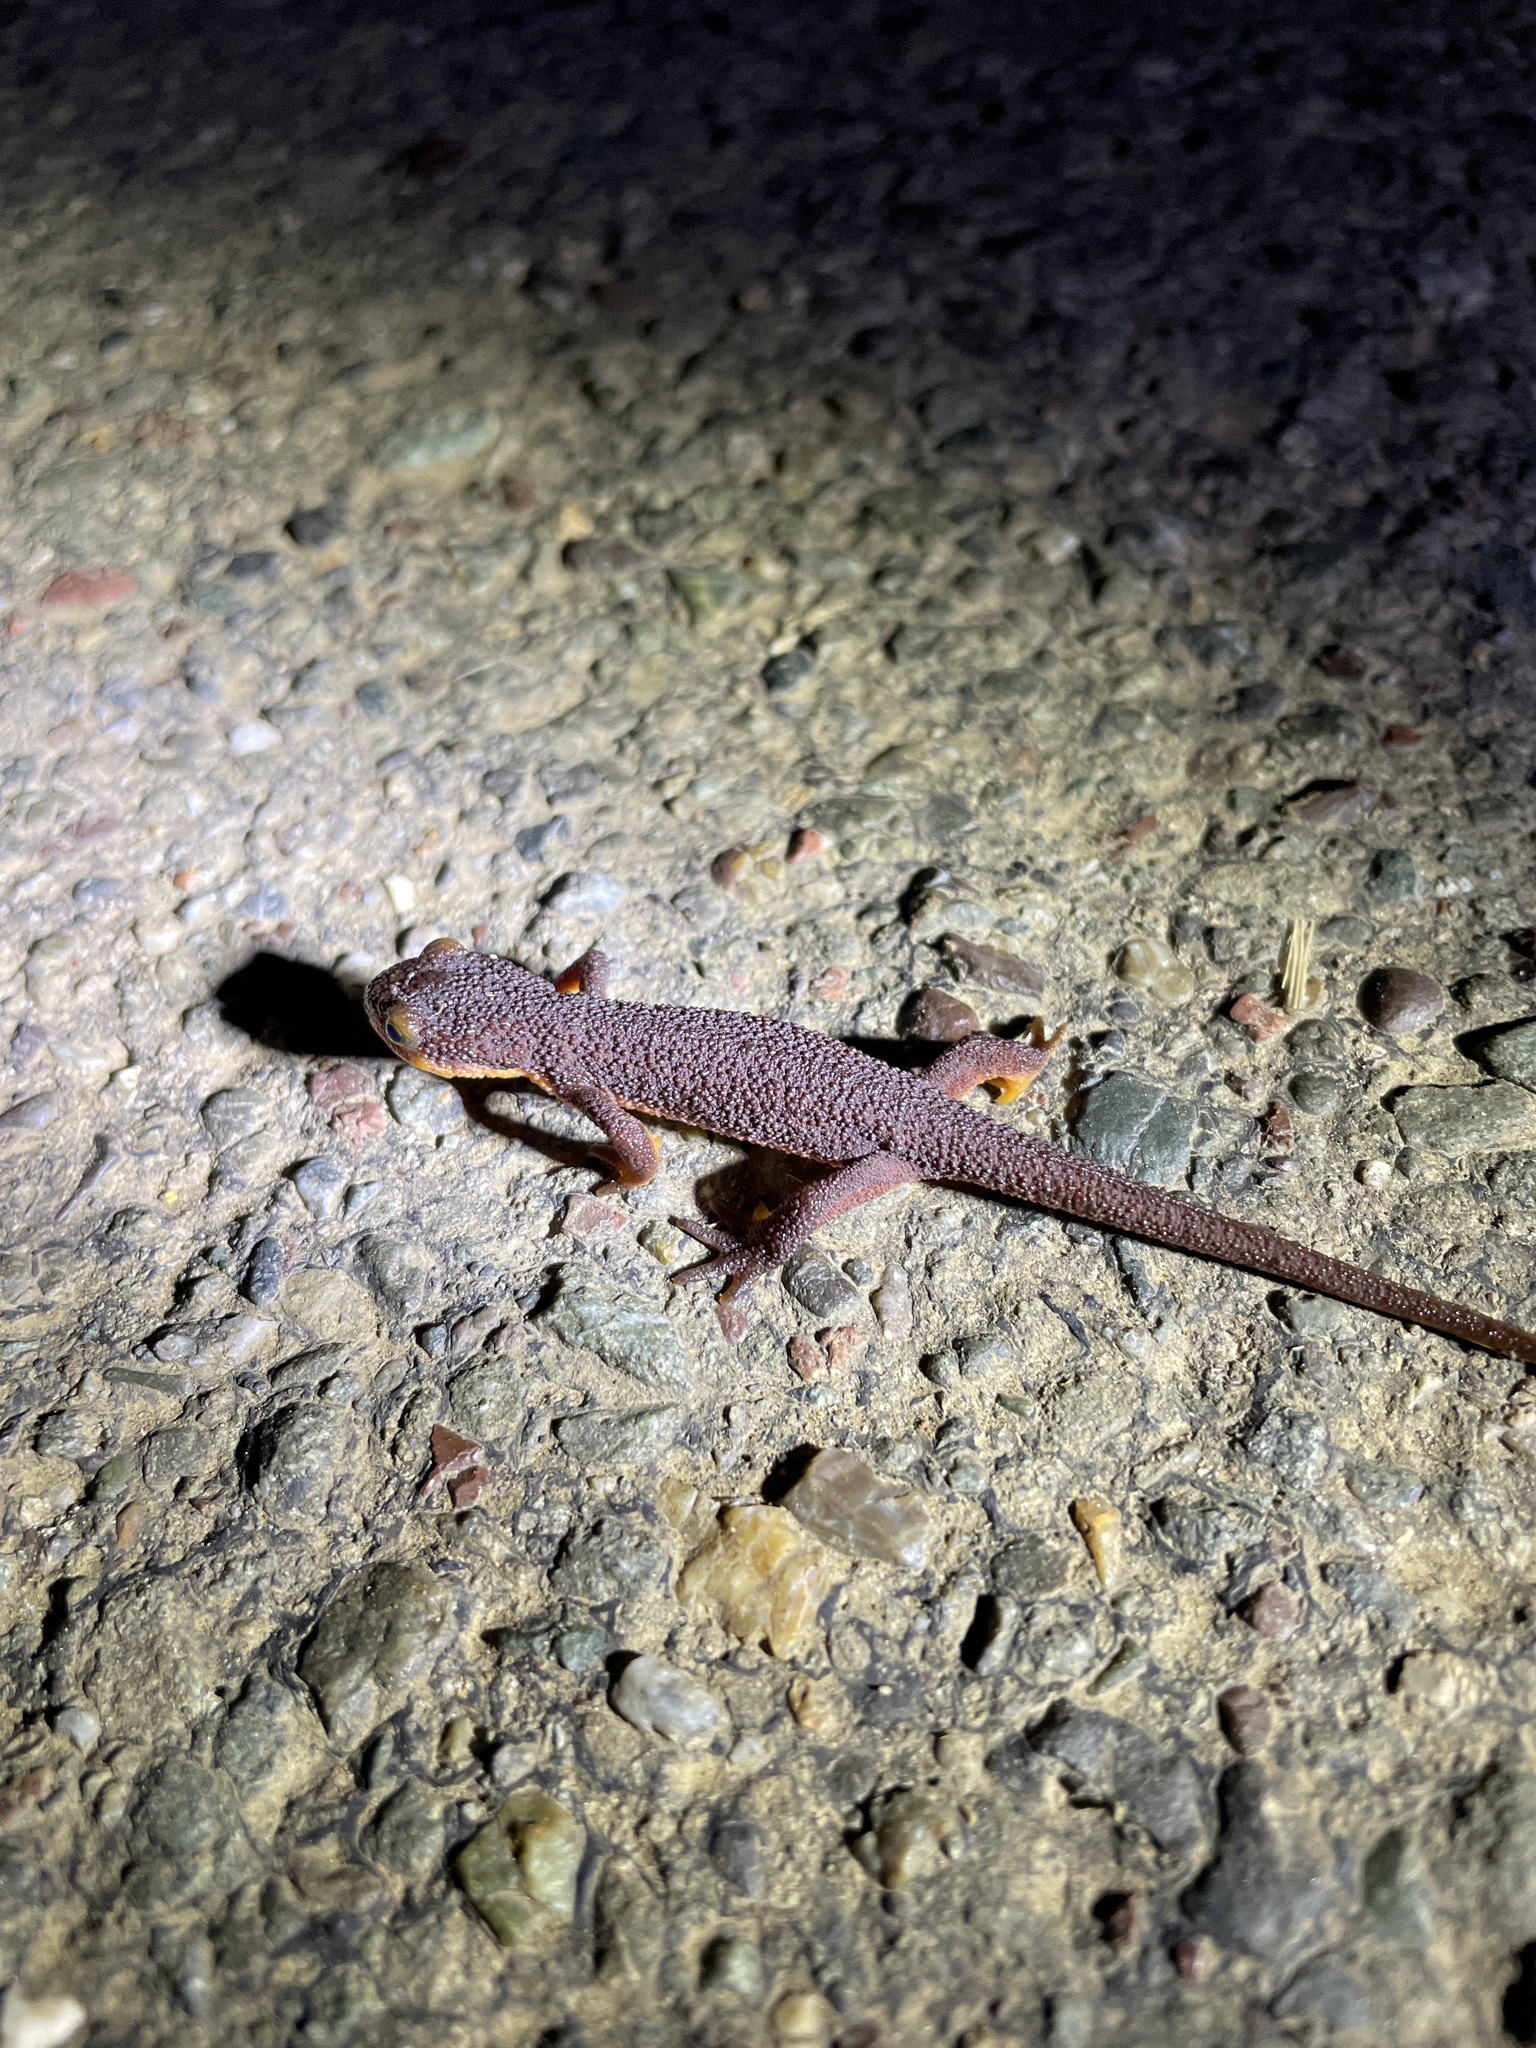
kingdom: Animalia
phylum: Chordata
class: Amphibia
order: Caudata
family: Salamandridae
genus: Taricha
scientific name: Taricha torosa
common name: California newt
